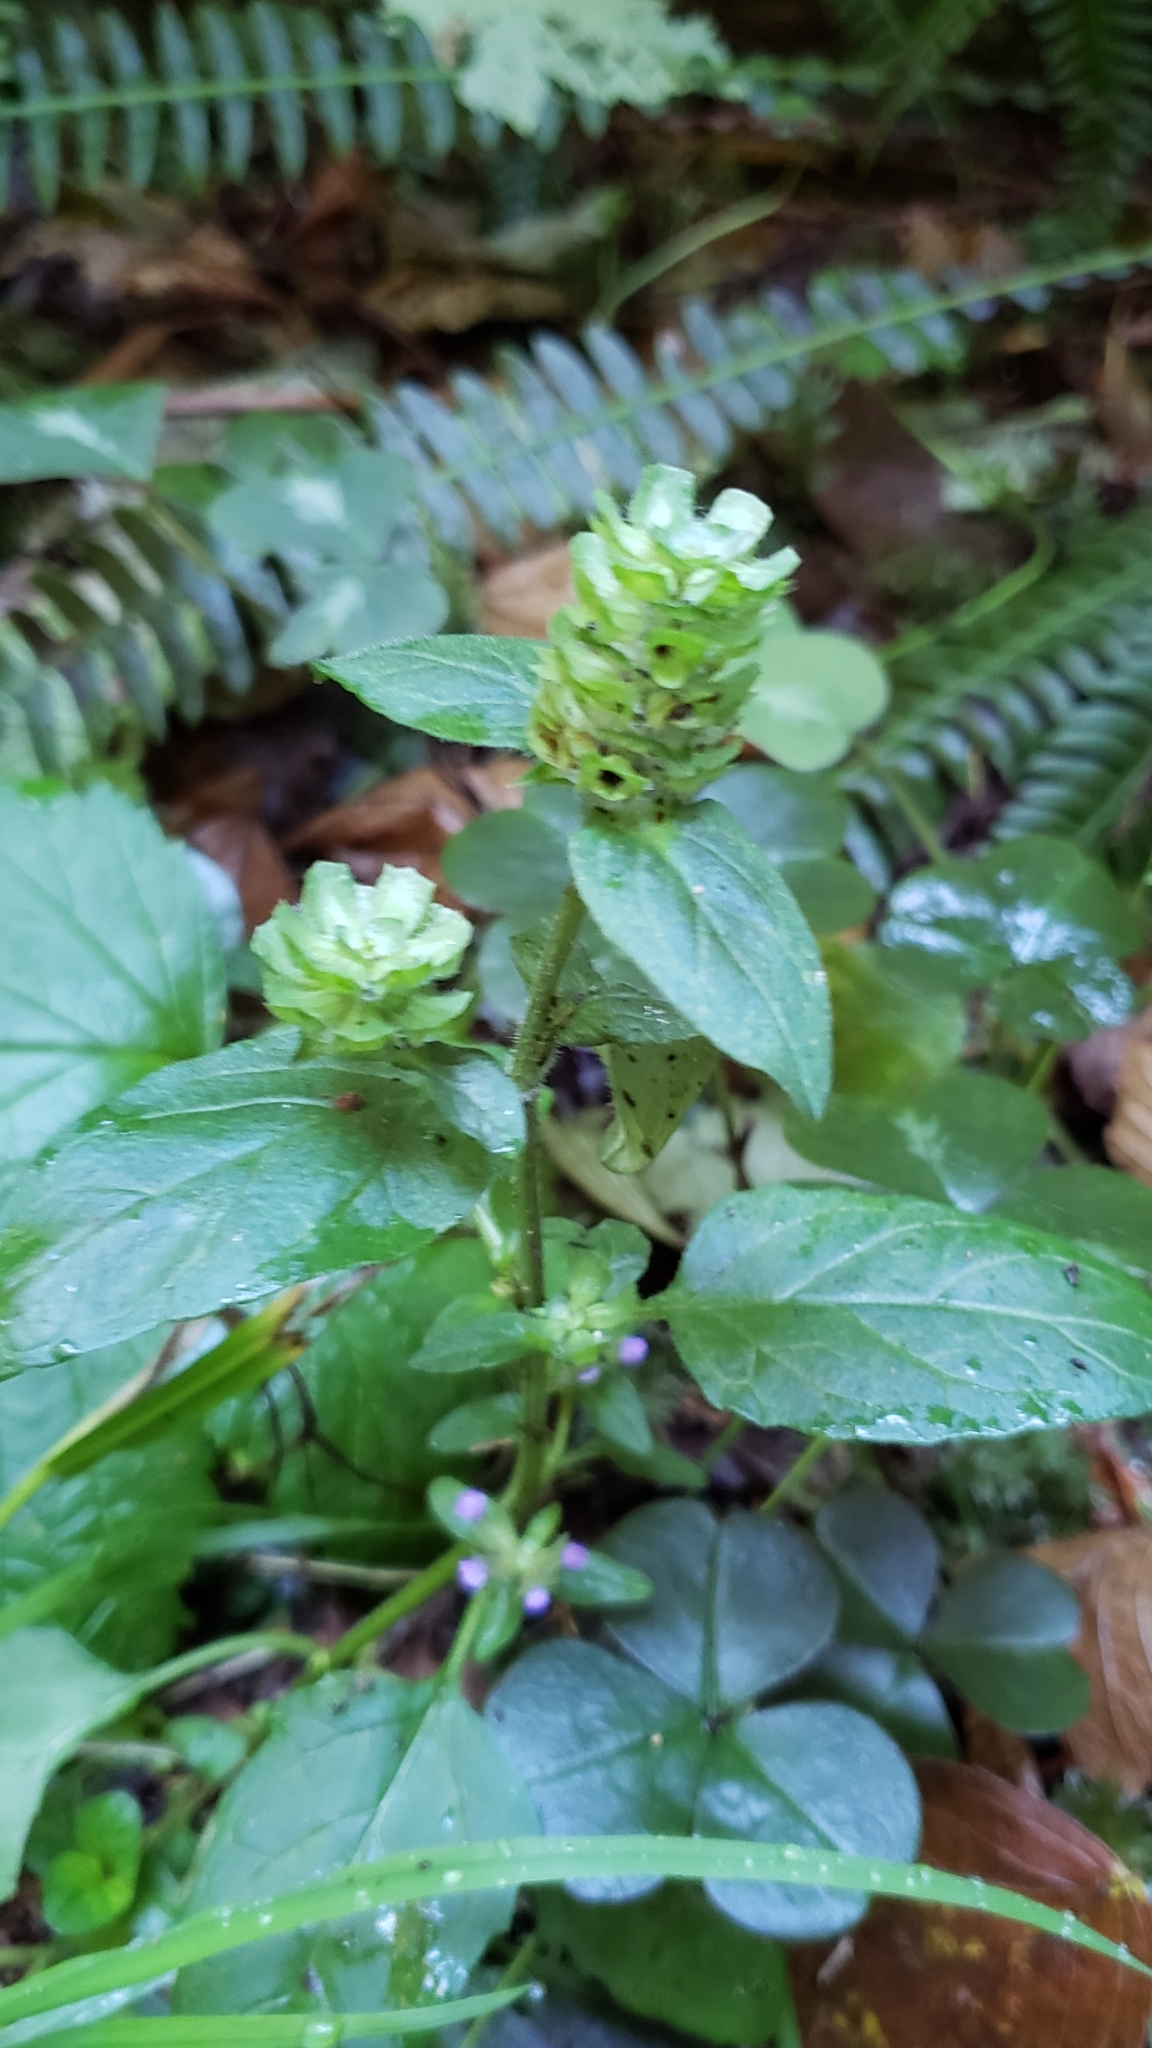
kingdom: Plantae
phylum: Tracheophyta
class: Magnoliopsida
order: Lamiales
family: Lamiaceae
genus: Prunella
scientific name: Prunella vulgaris
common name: Heal-all
